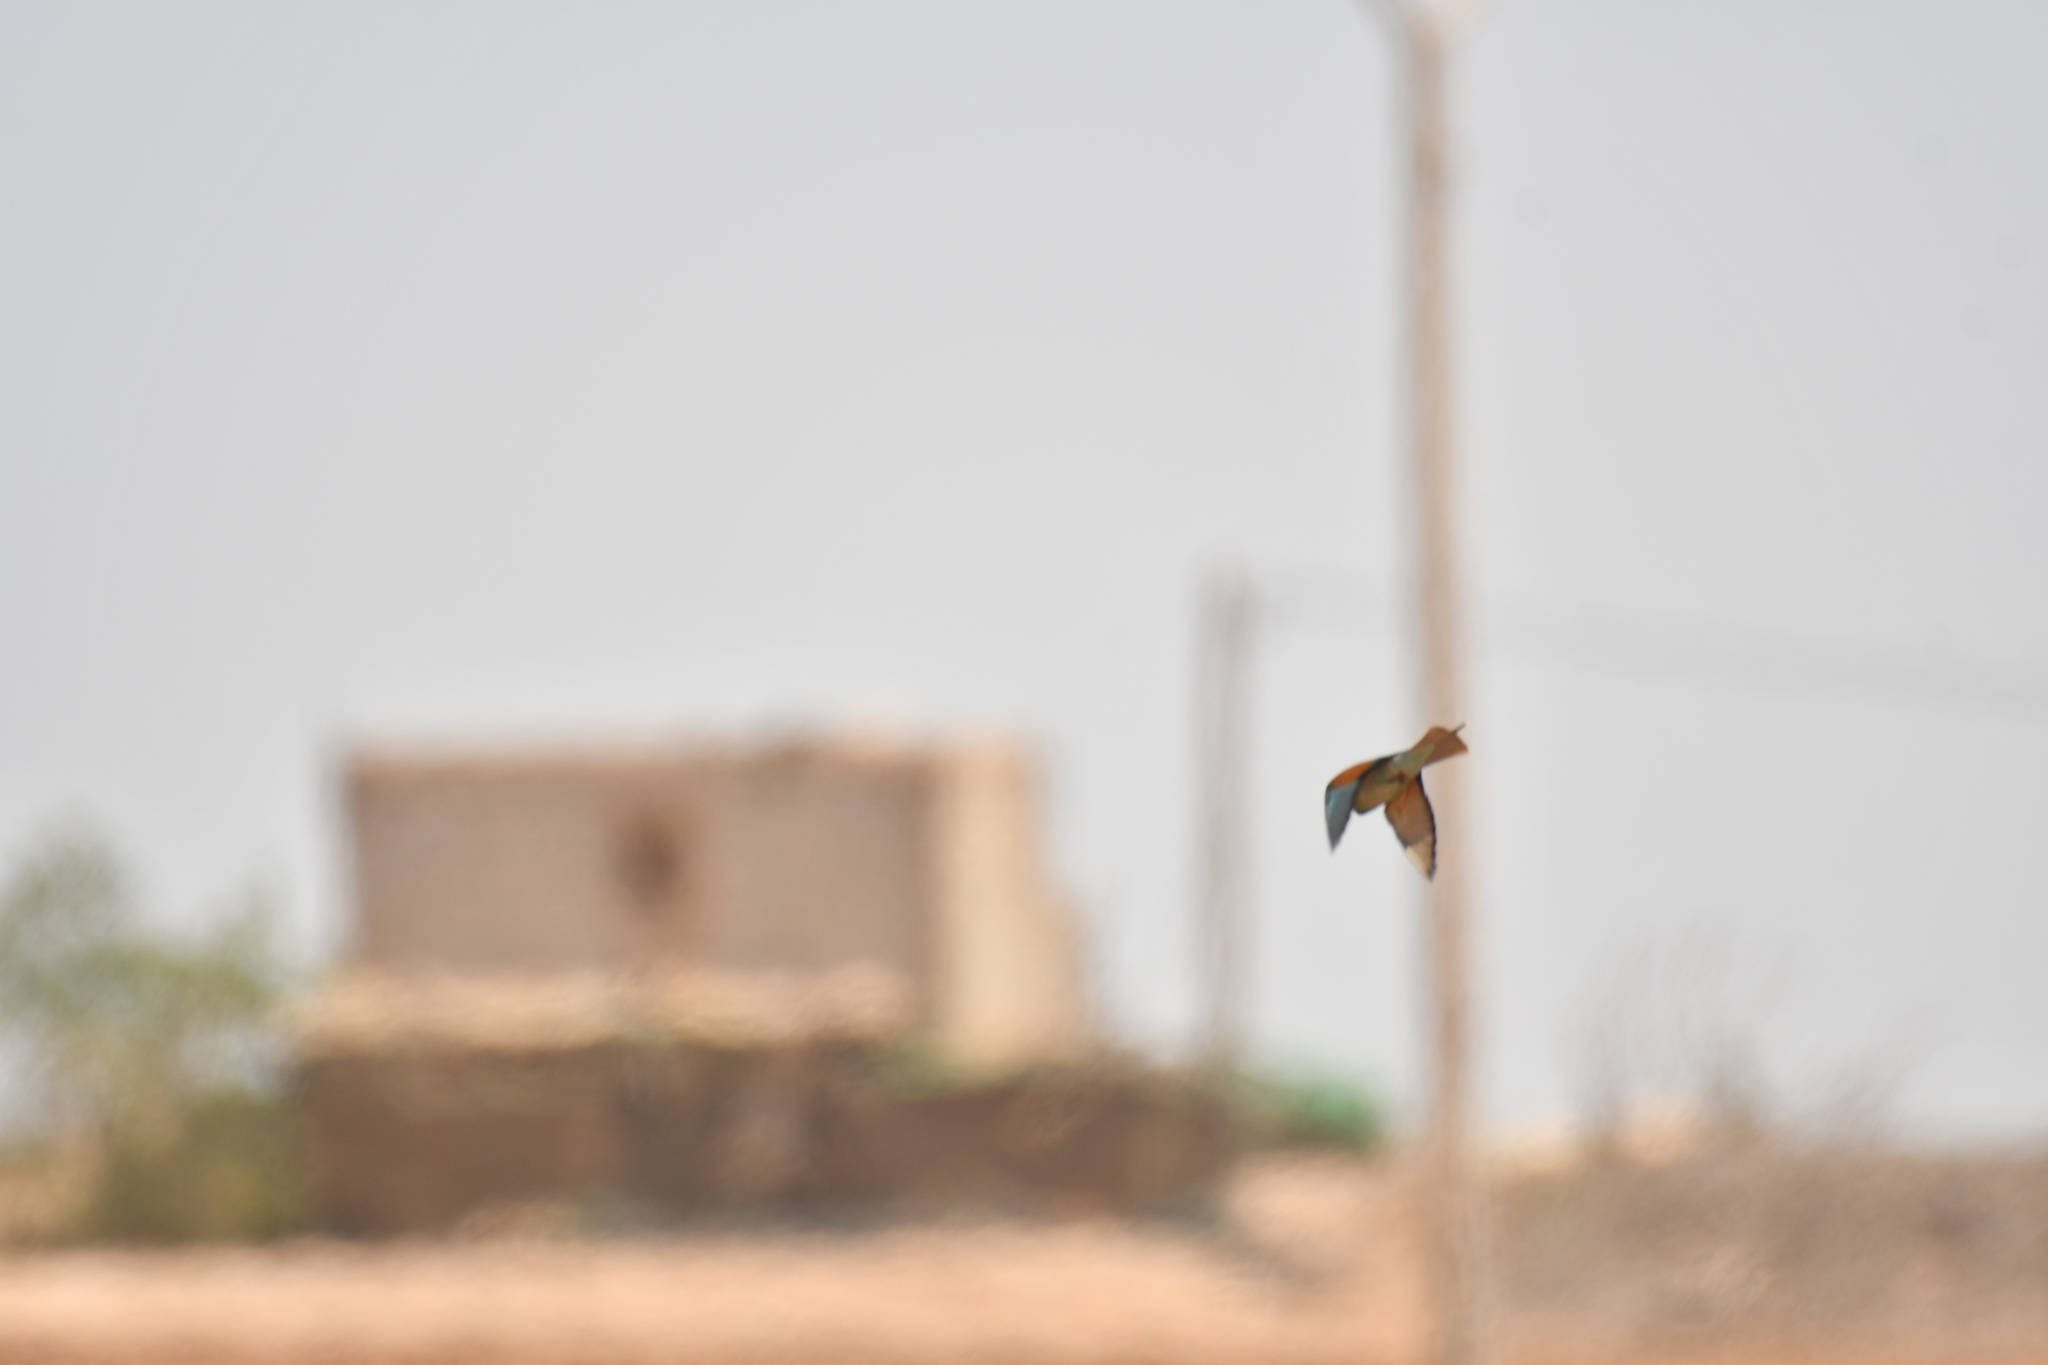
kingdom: Animalia
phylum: Chordata
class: Aves
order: Coraciiformes
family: Meropidae
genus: Merops
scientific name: Merops apiaster
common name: European bee-eater
